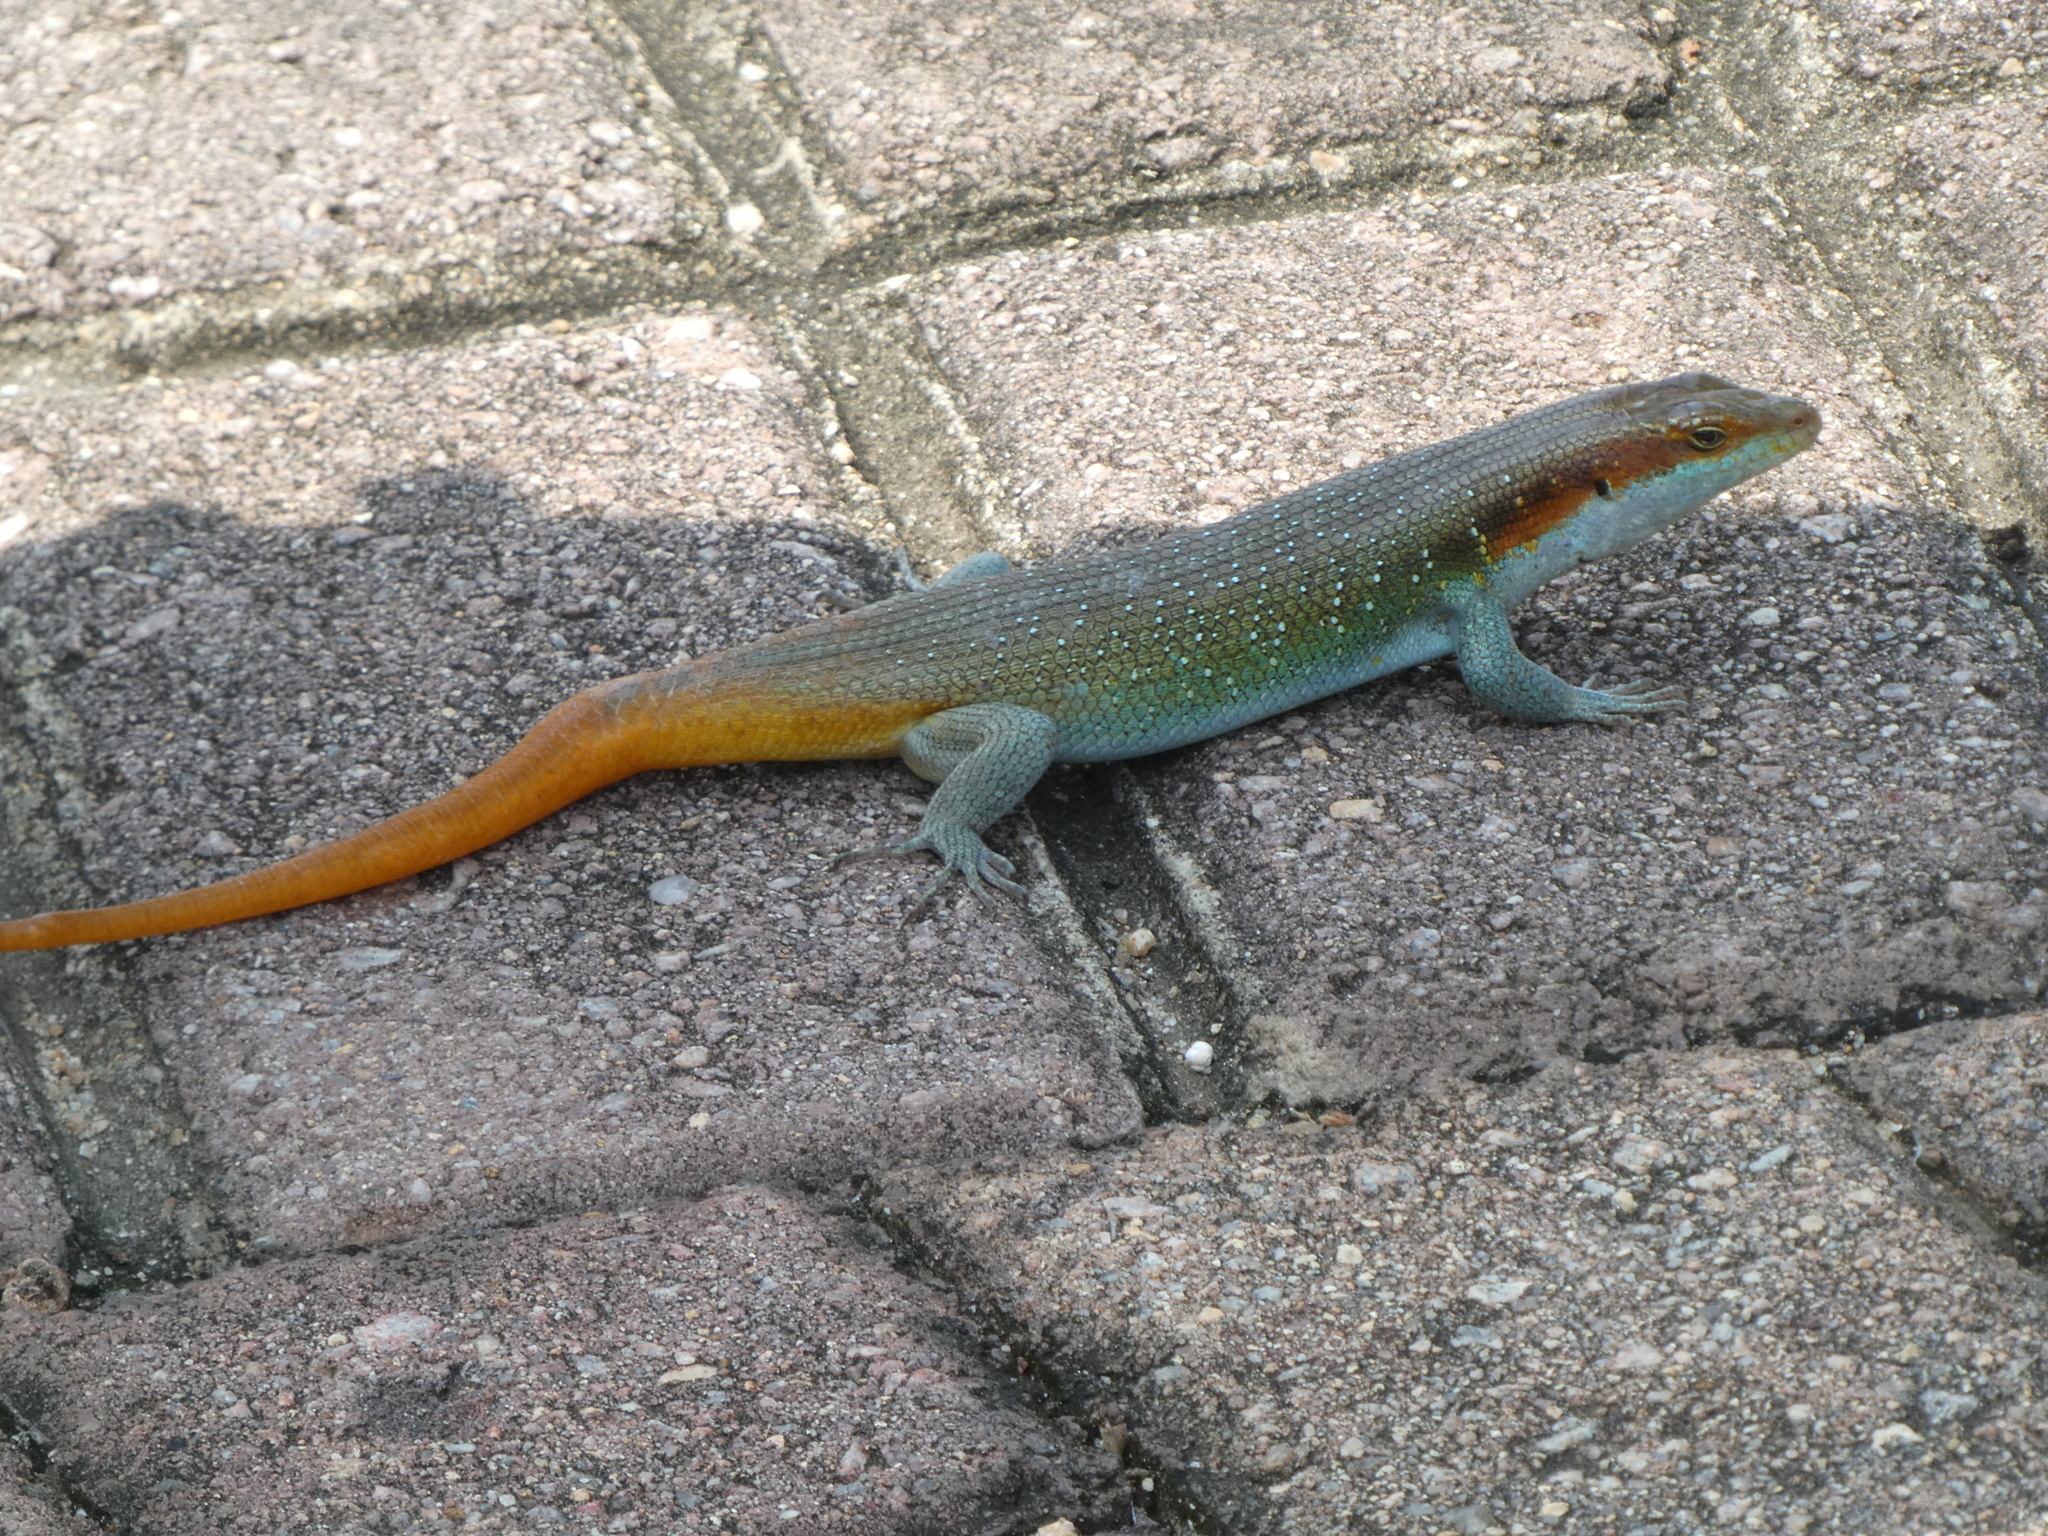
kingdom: Animalia
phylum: Chordata
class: Squamata
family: Scincidae
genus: Trachylepis
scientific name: Trachylepis margaritifera
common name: Rainbow skink
